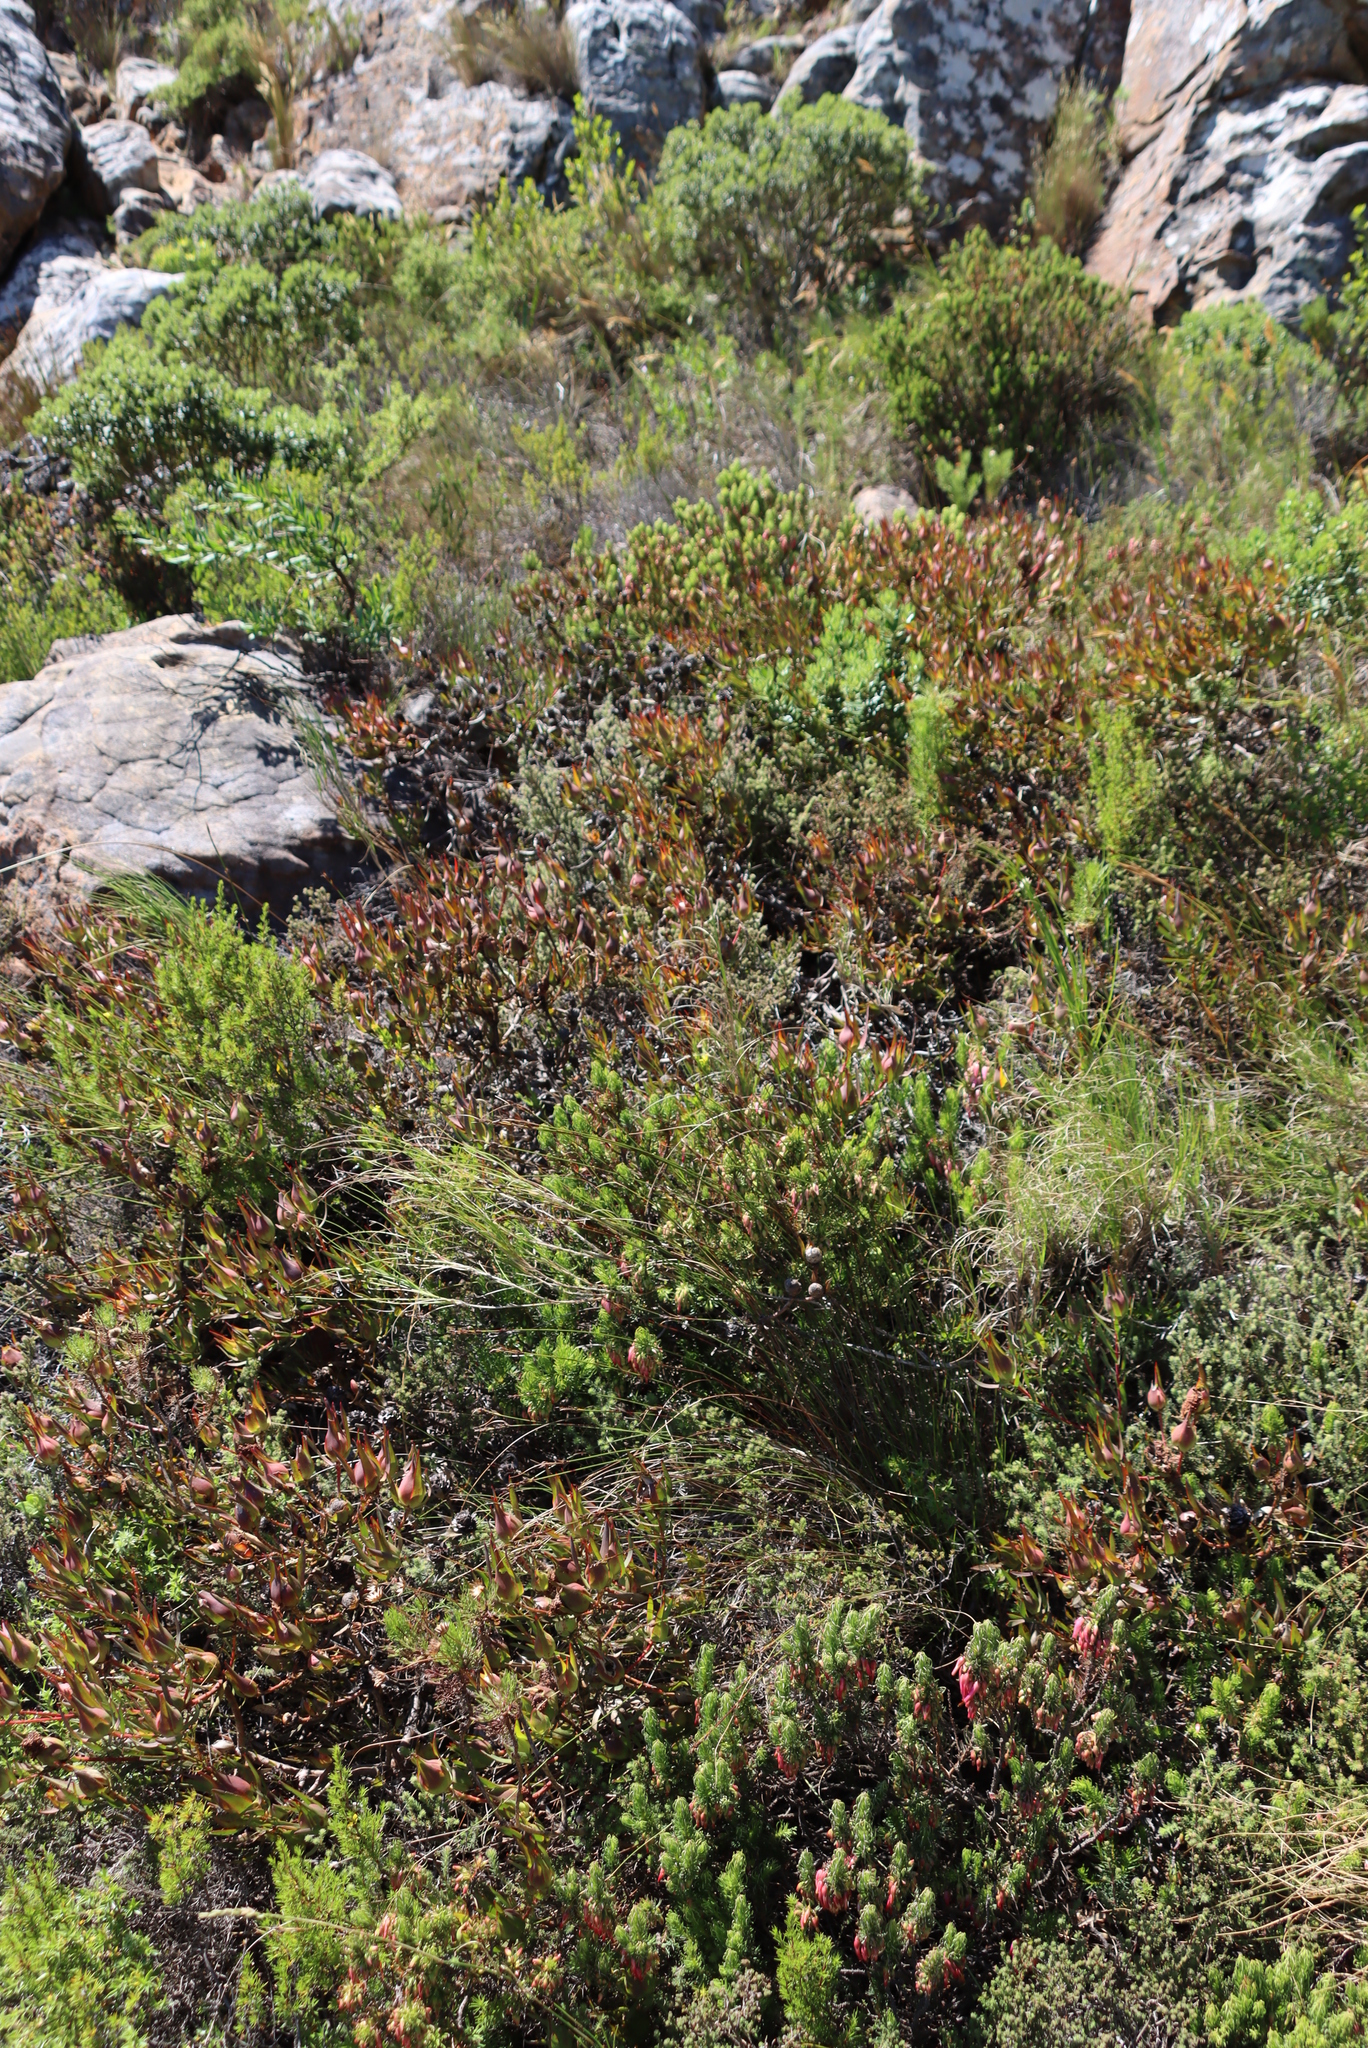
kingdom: Plantae
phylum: Tracheophyta
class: Magnoliopsida
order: Ericales
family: Ericaceae
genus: Erica
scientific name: Erica plukenetii
